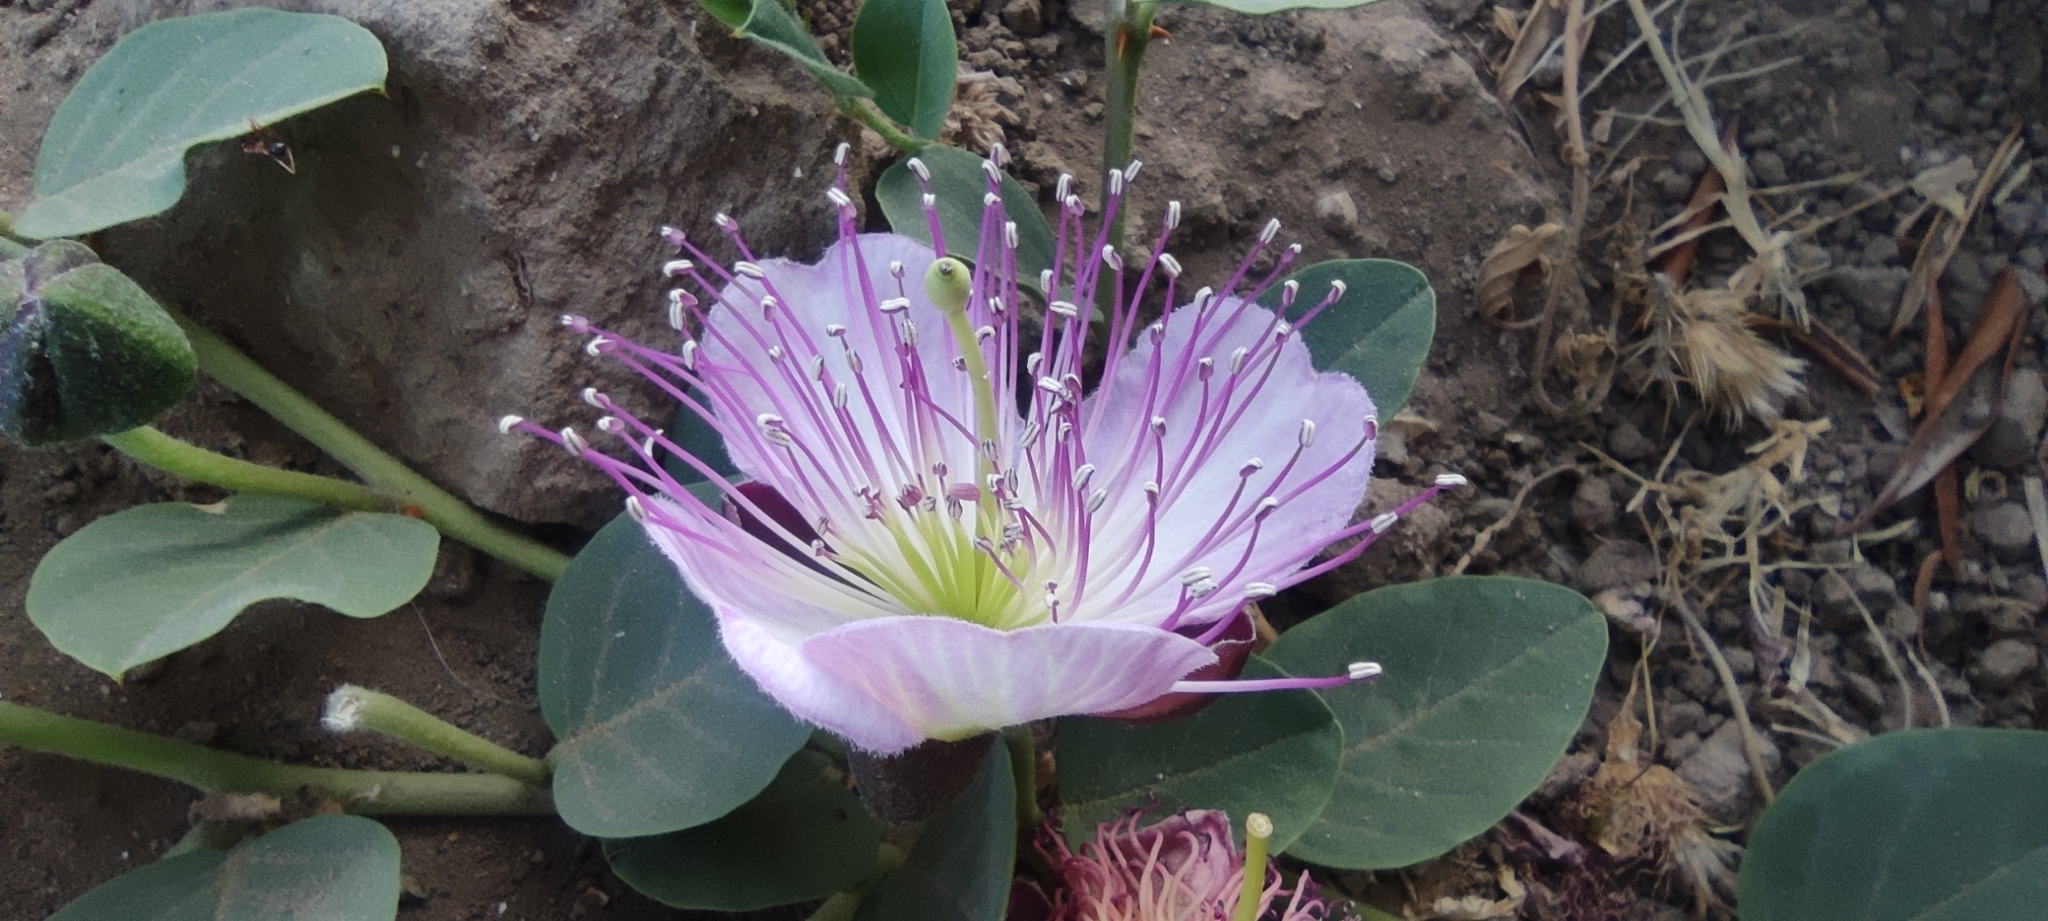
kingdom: Plantae
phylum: Tracheophyta
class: Magnoliopsida
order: Brassicales
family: Capparaceae
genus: Capparis
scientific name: Capparis spinosa
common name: Caper
